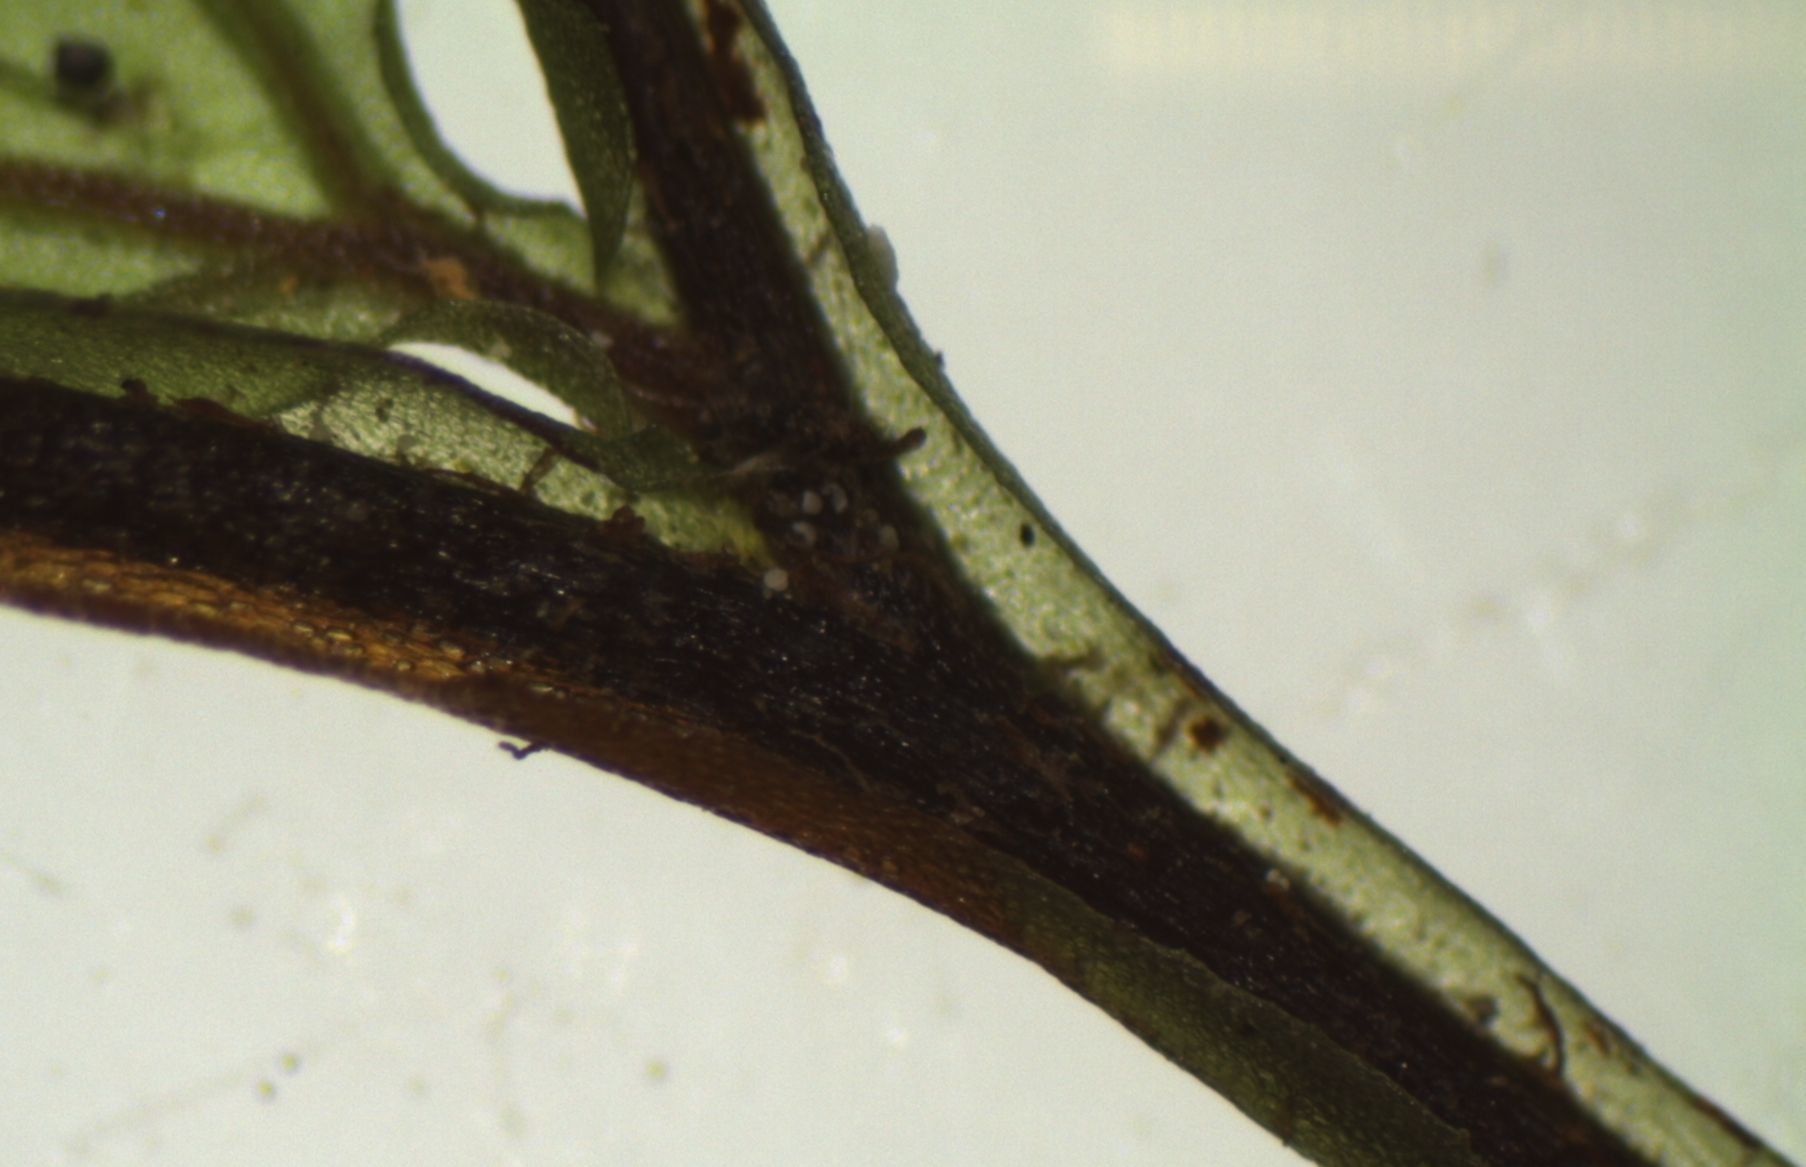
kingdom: Plantae
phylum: Tracheophyta
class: Polypodiopsida
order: Hymenophyllales
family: Hymenophyllaceae
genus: Hymenophyllum
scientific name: Hymenophyllum bivalve
